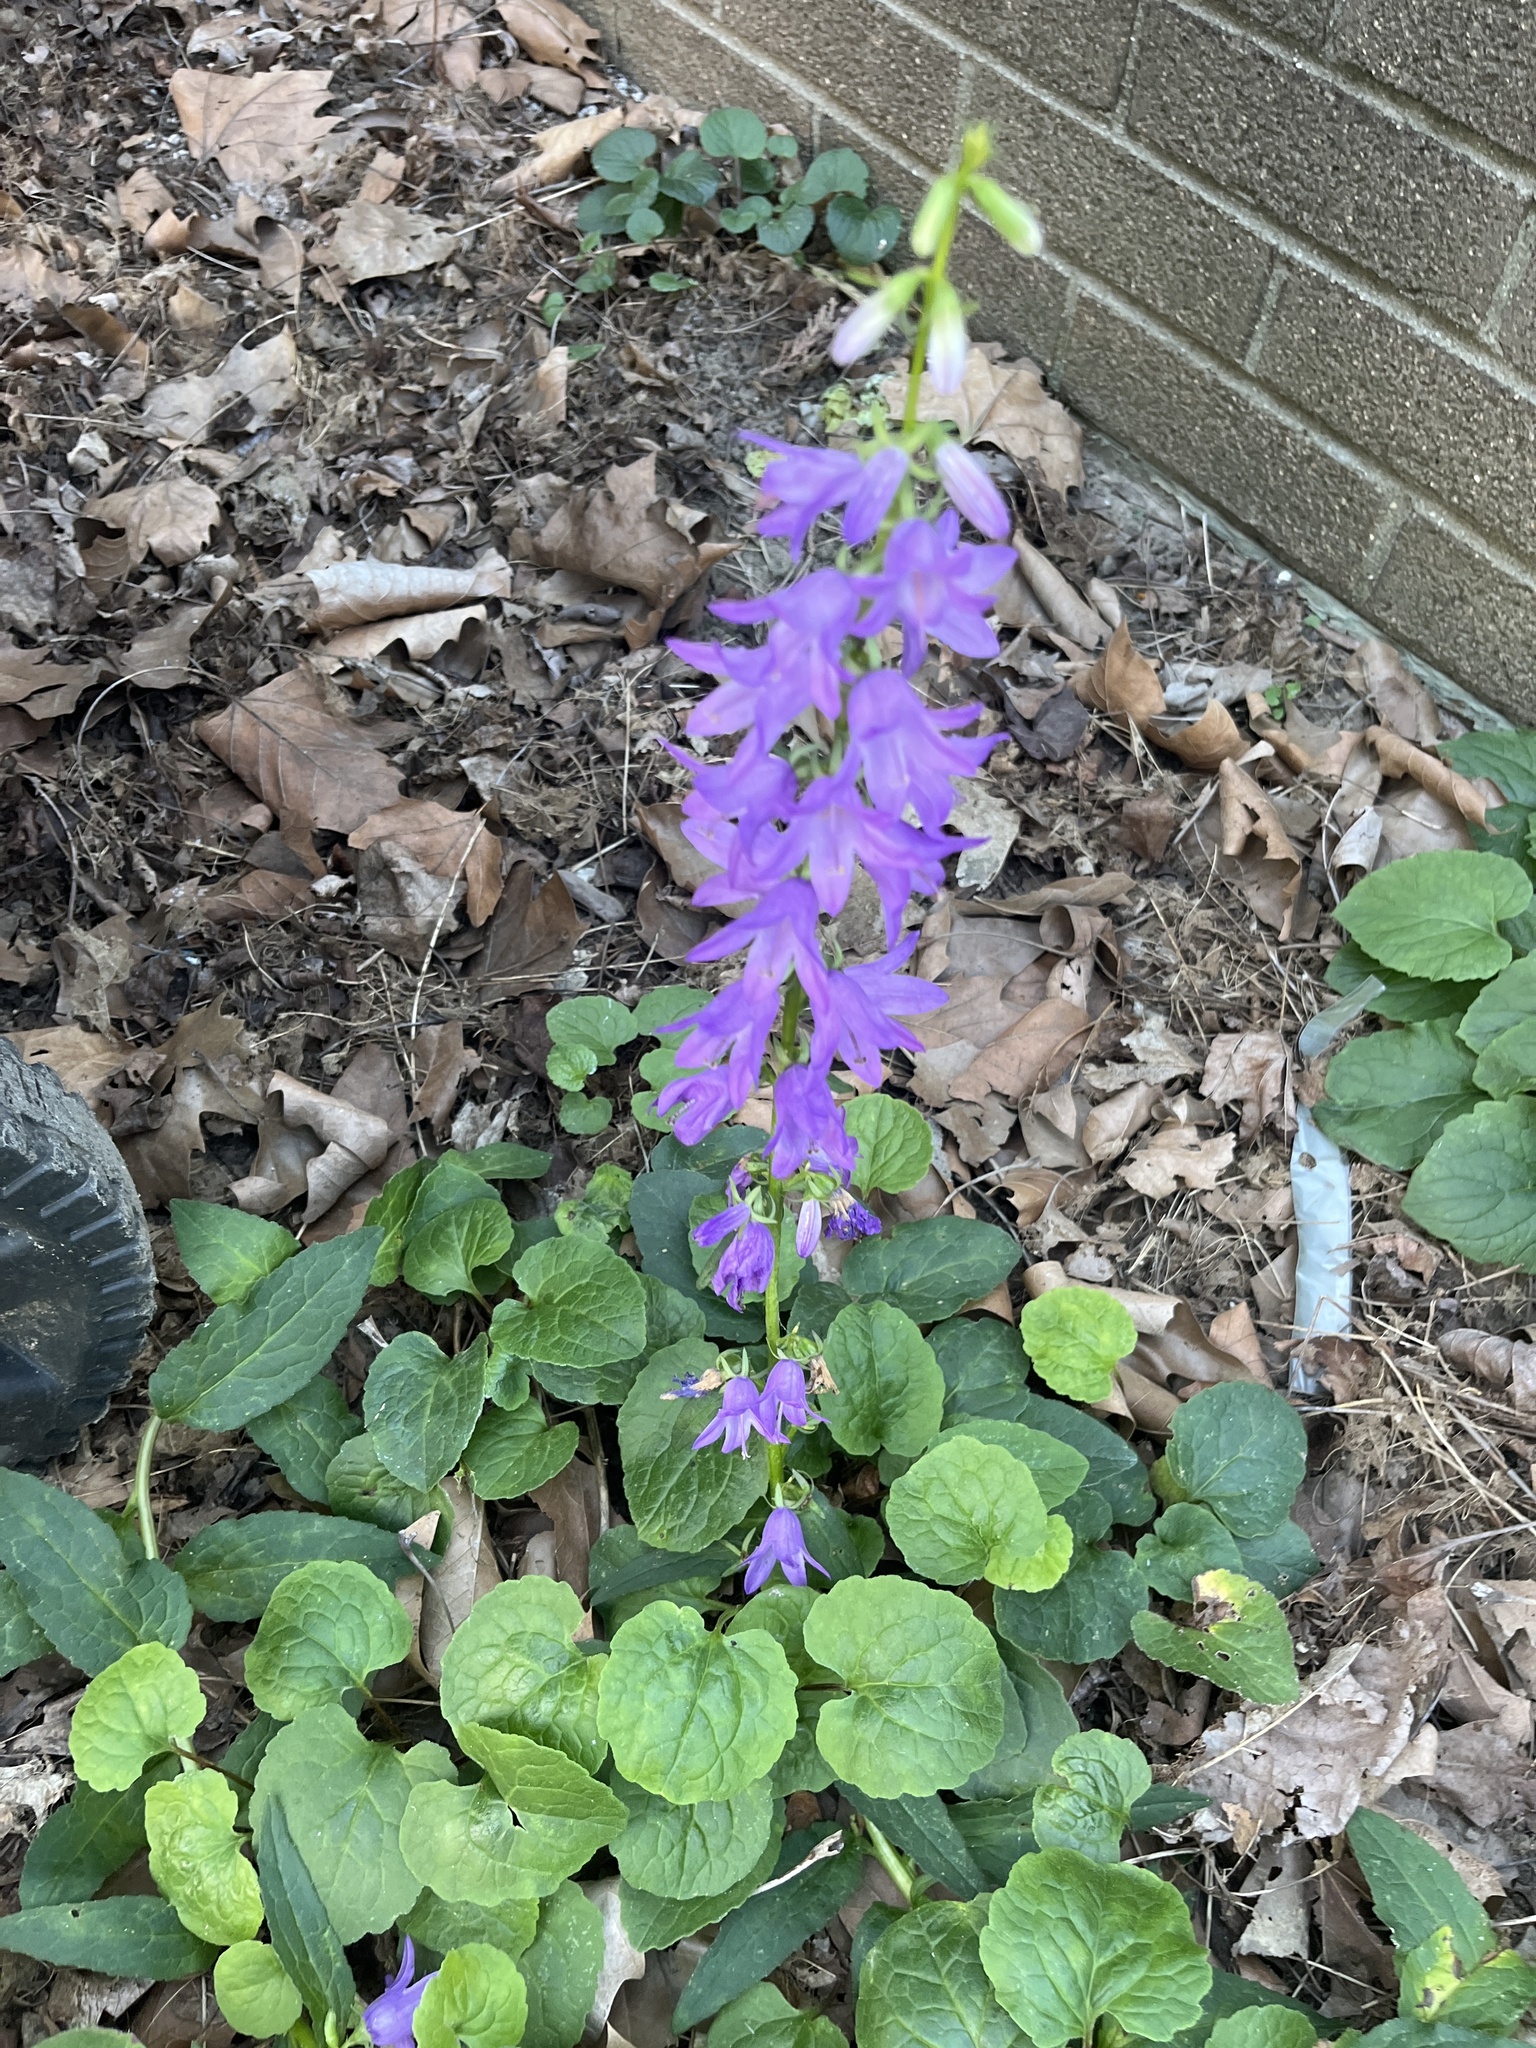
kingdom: Plantae
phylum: Tracheophyta
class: Magnoliopsida
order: Asterales
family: Campanulaceae
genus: Campanula
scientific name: Campanula rapunculoides
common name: Creeping bellflower
